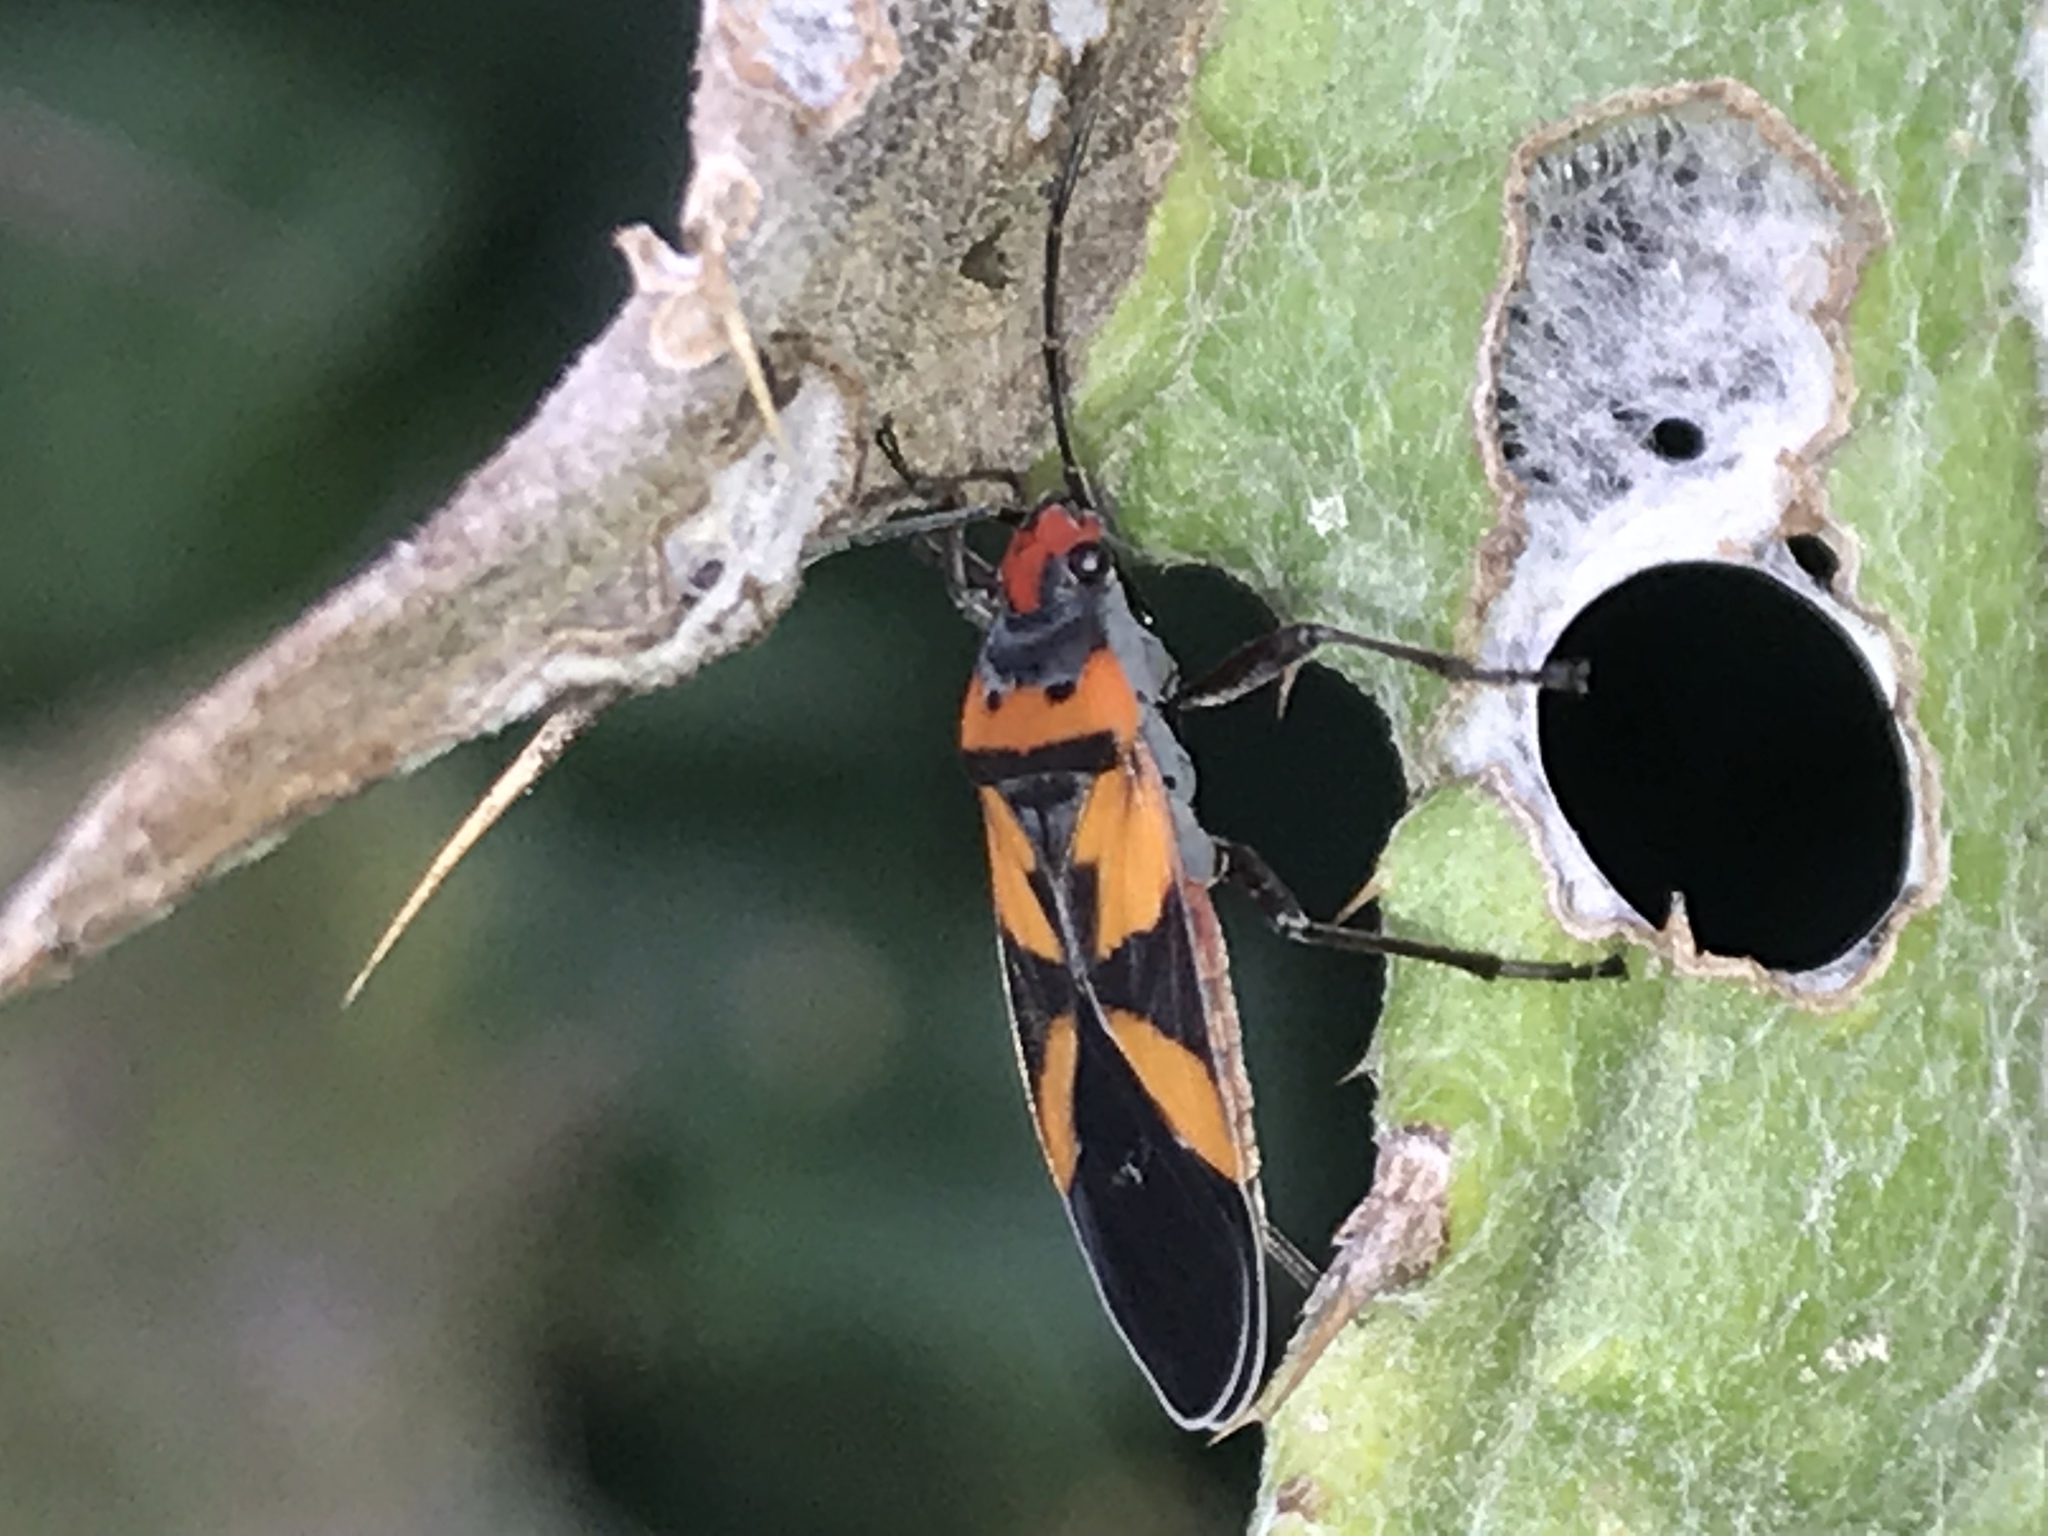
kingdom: Animalia
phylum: Arthropoda
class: Insecta
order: Hemiptera
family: Lygaeidae
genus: Lygaeus
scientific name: Lygaeus analis
